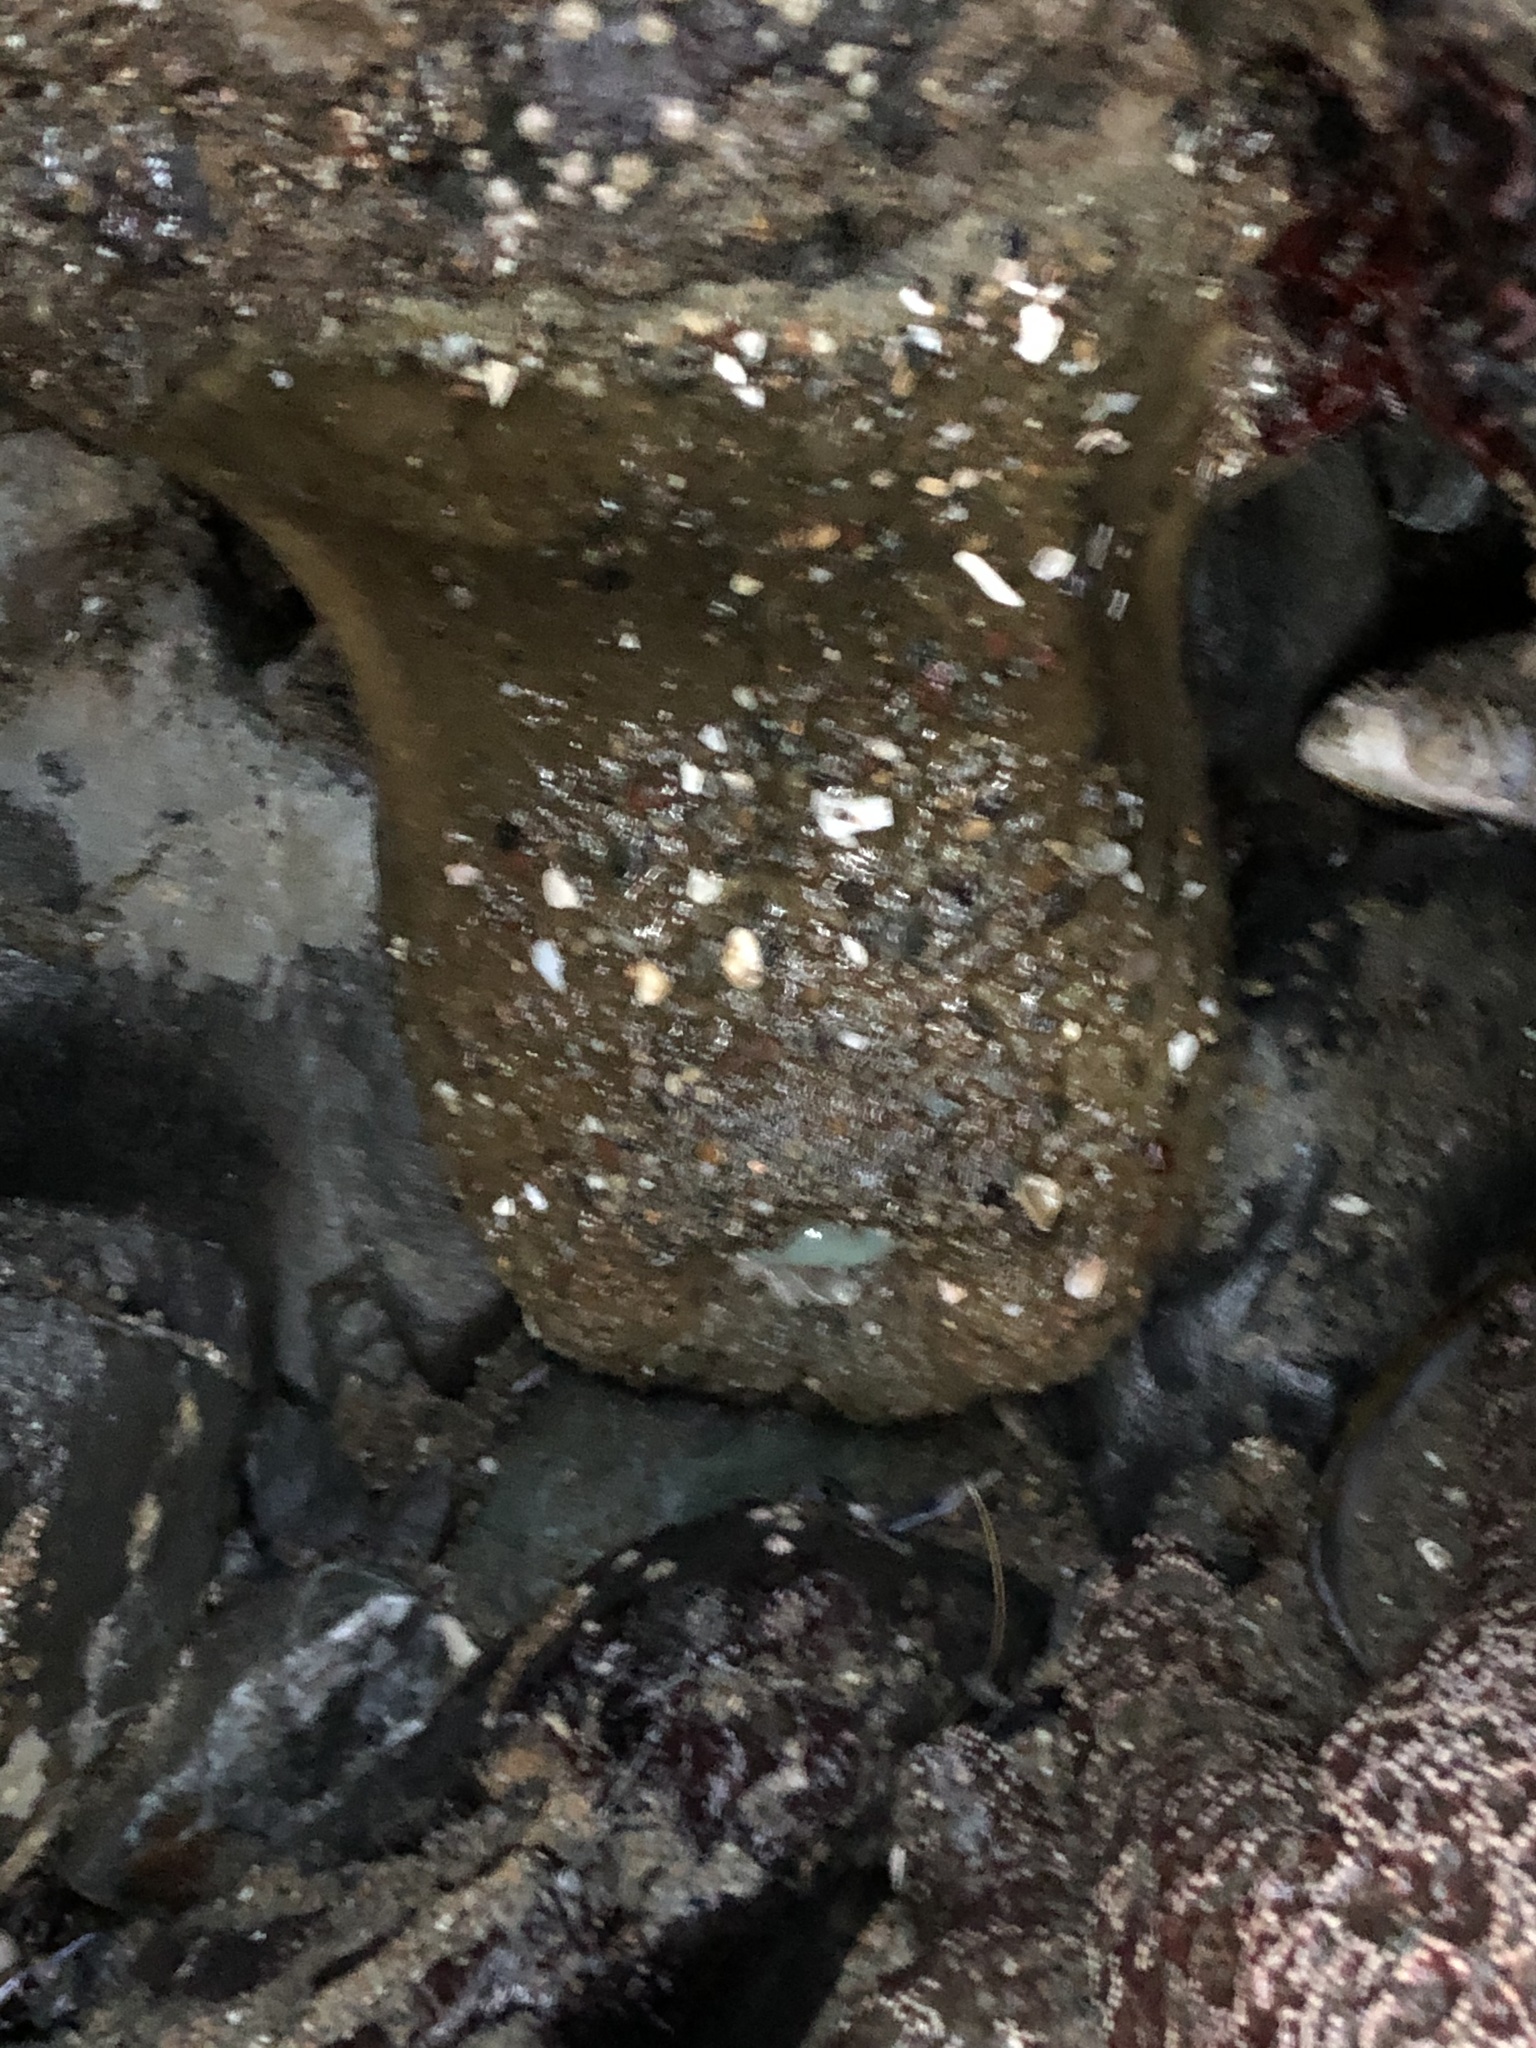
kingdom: Animalia
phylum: Cnidaria
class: Anthozoa
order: Actiniaria
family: Actiniidae
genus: Anthopleura
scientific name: Anthopleura xanthogrammica
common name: Giant green anemone
